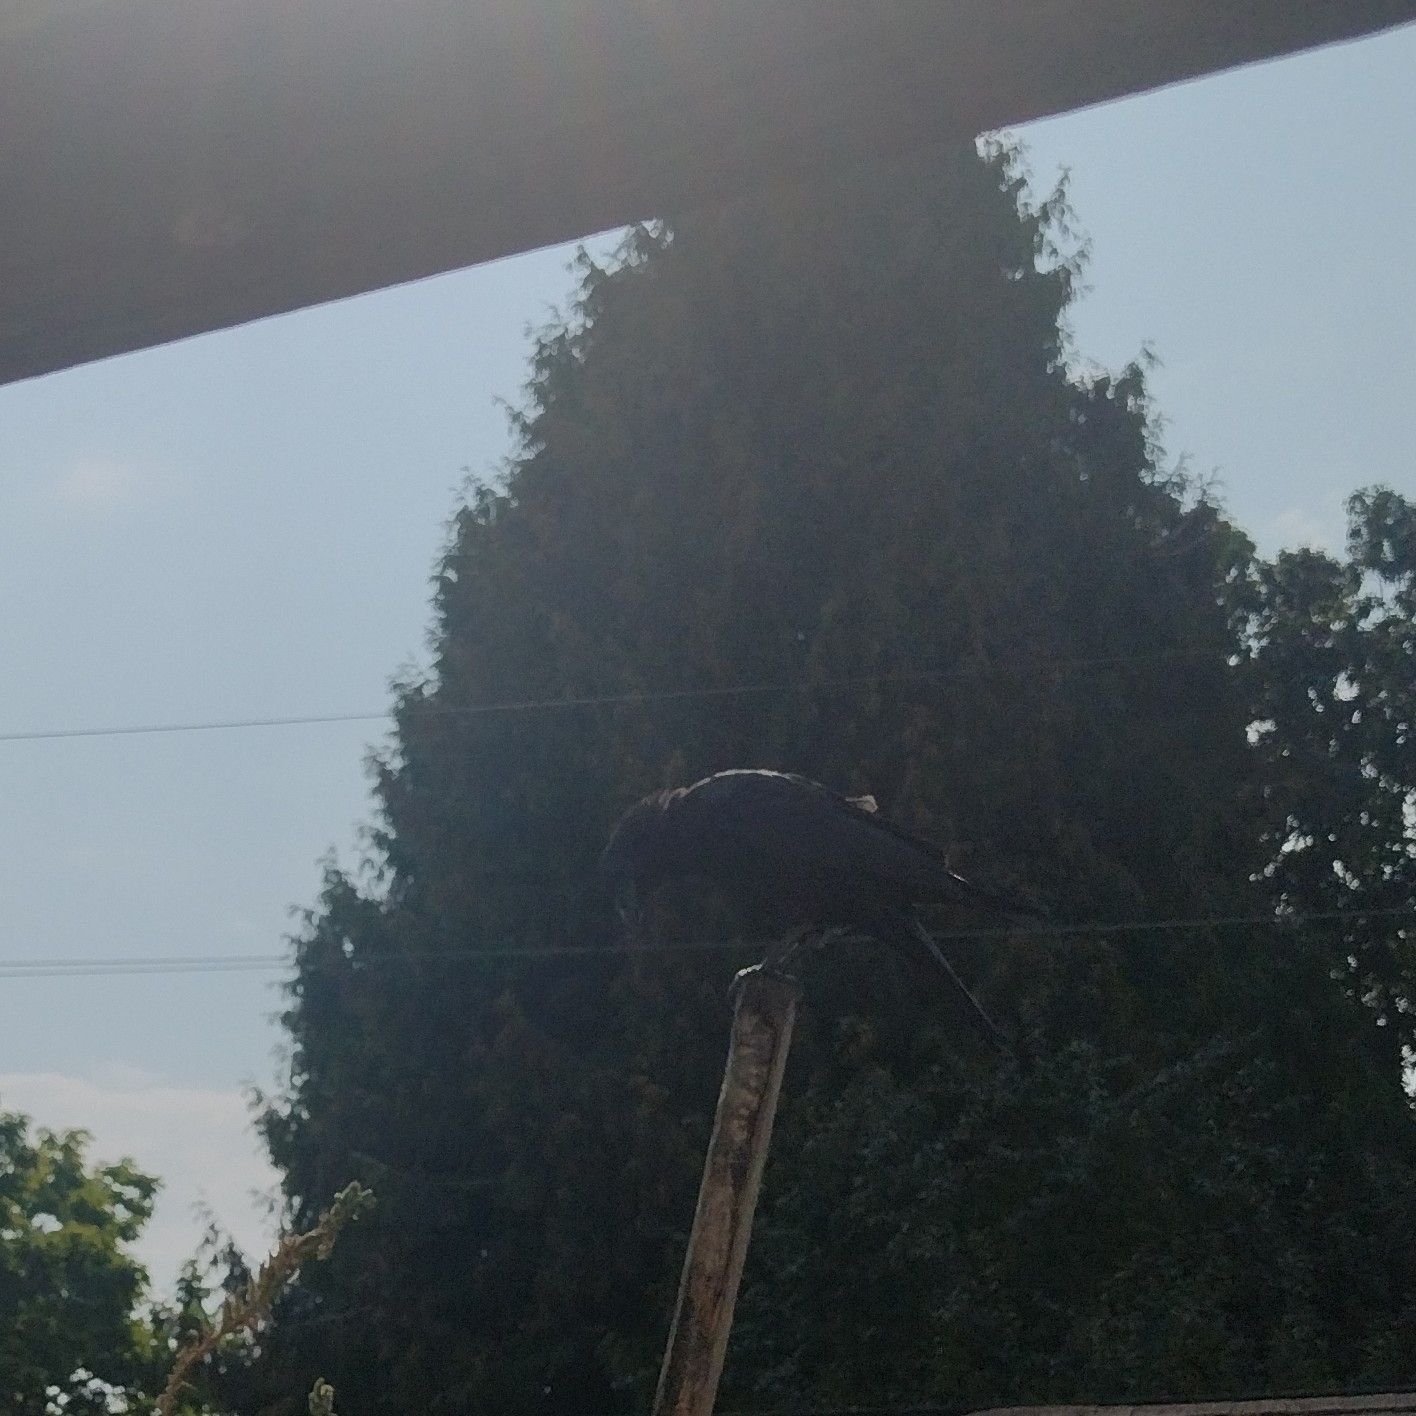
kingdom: Animalia
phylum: Chordata
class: Aves
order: Passeriformes
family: Corvidae
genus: Corvus
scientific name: Corvus brachyrhynchos
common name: American crow
